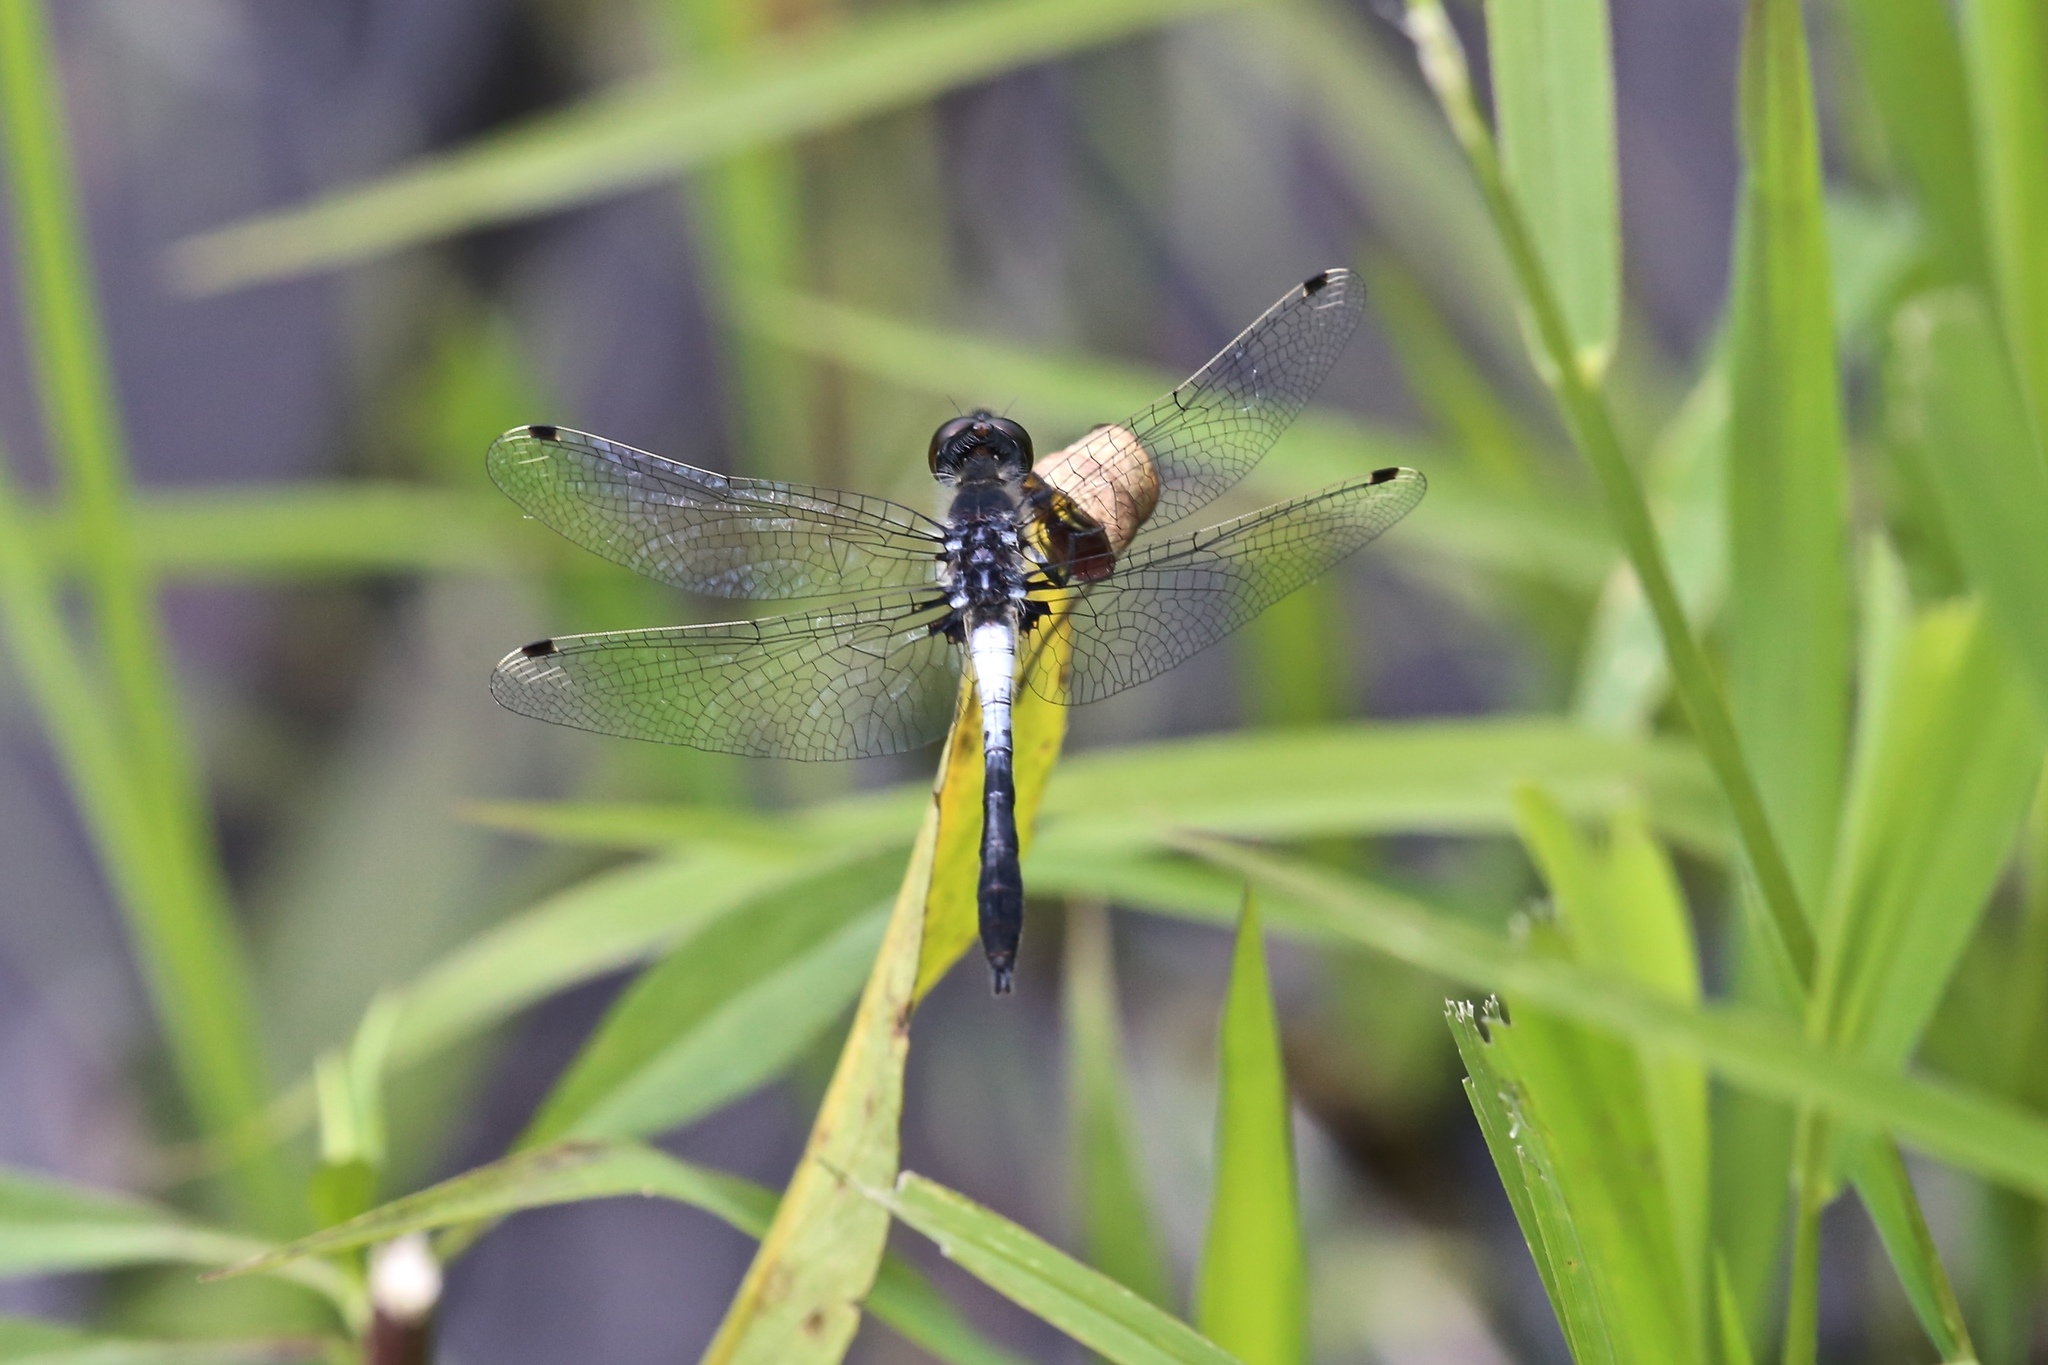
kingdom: Animalia
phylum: Arthropoda
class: Insecta
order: Odonata
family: Libellulidae
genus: Leucorrhinia
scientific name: Leucorrhinia frigida
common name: Frosted whiteface
